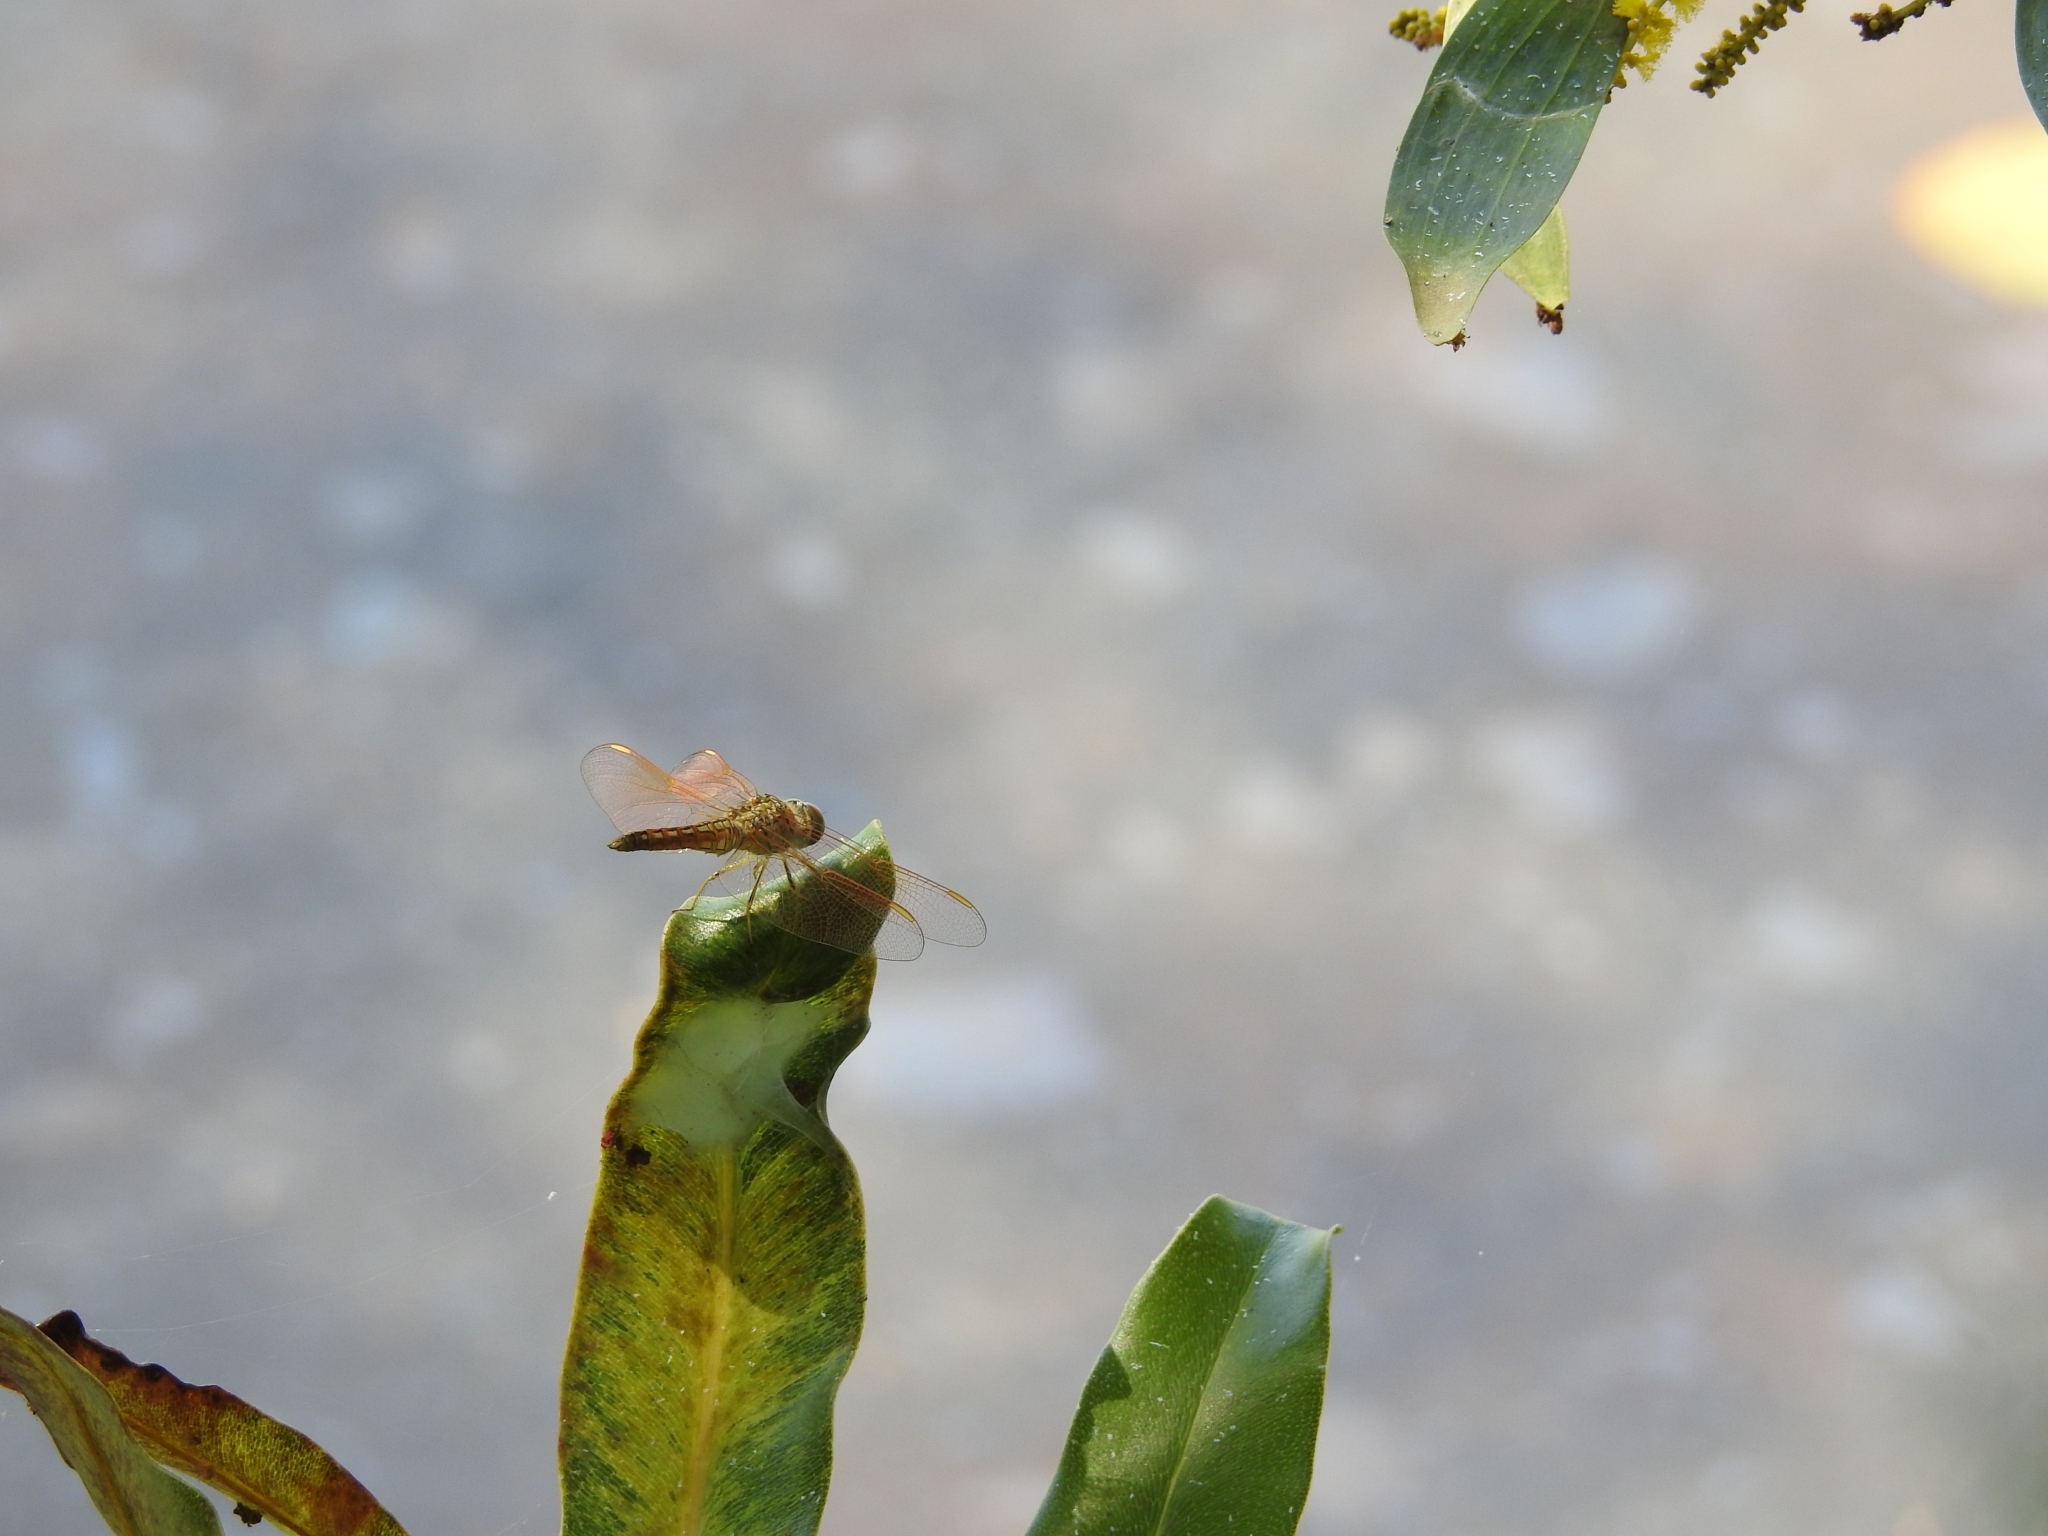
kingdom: Animalia
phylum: Arthropoda
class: Insecta
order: Odonata
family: Libellulidae
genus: Brachythemis
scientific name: Brachythemis contaminata
